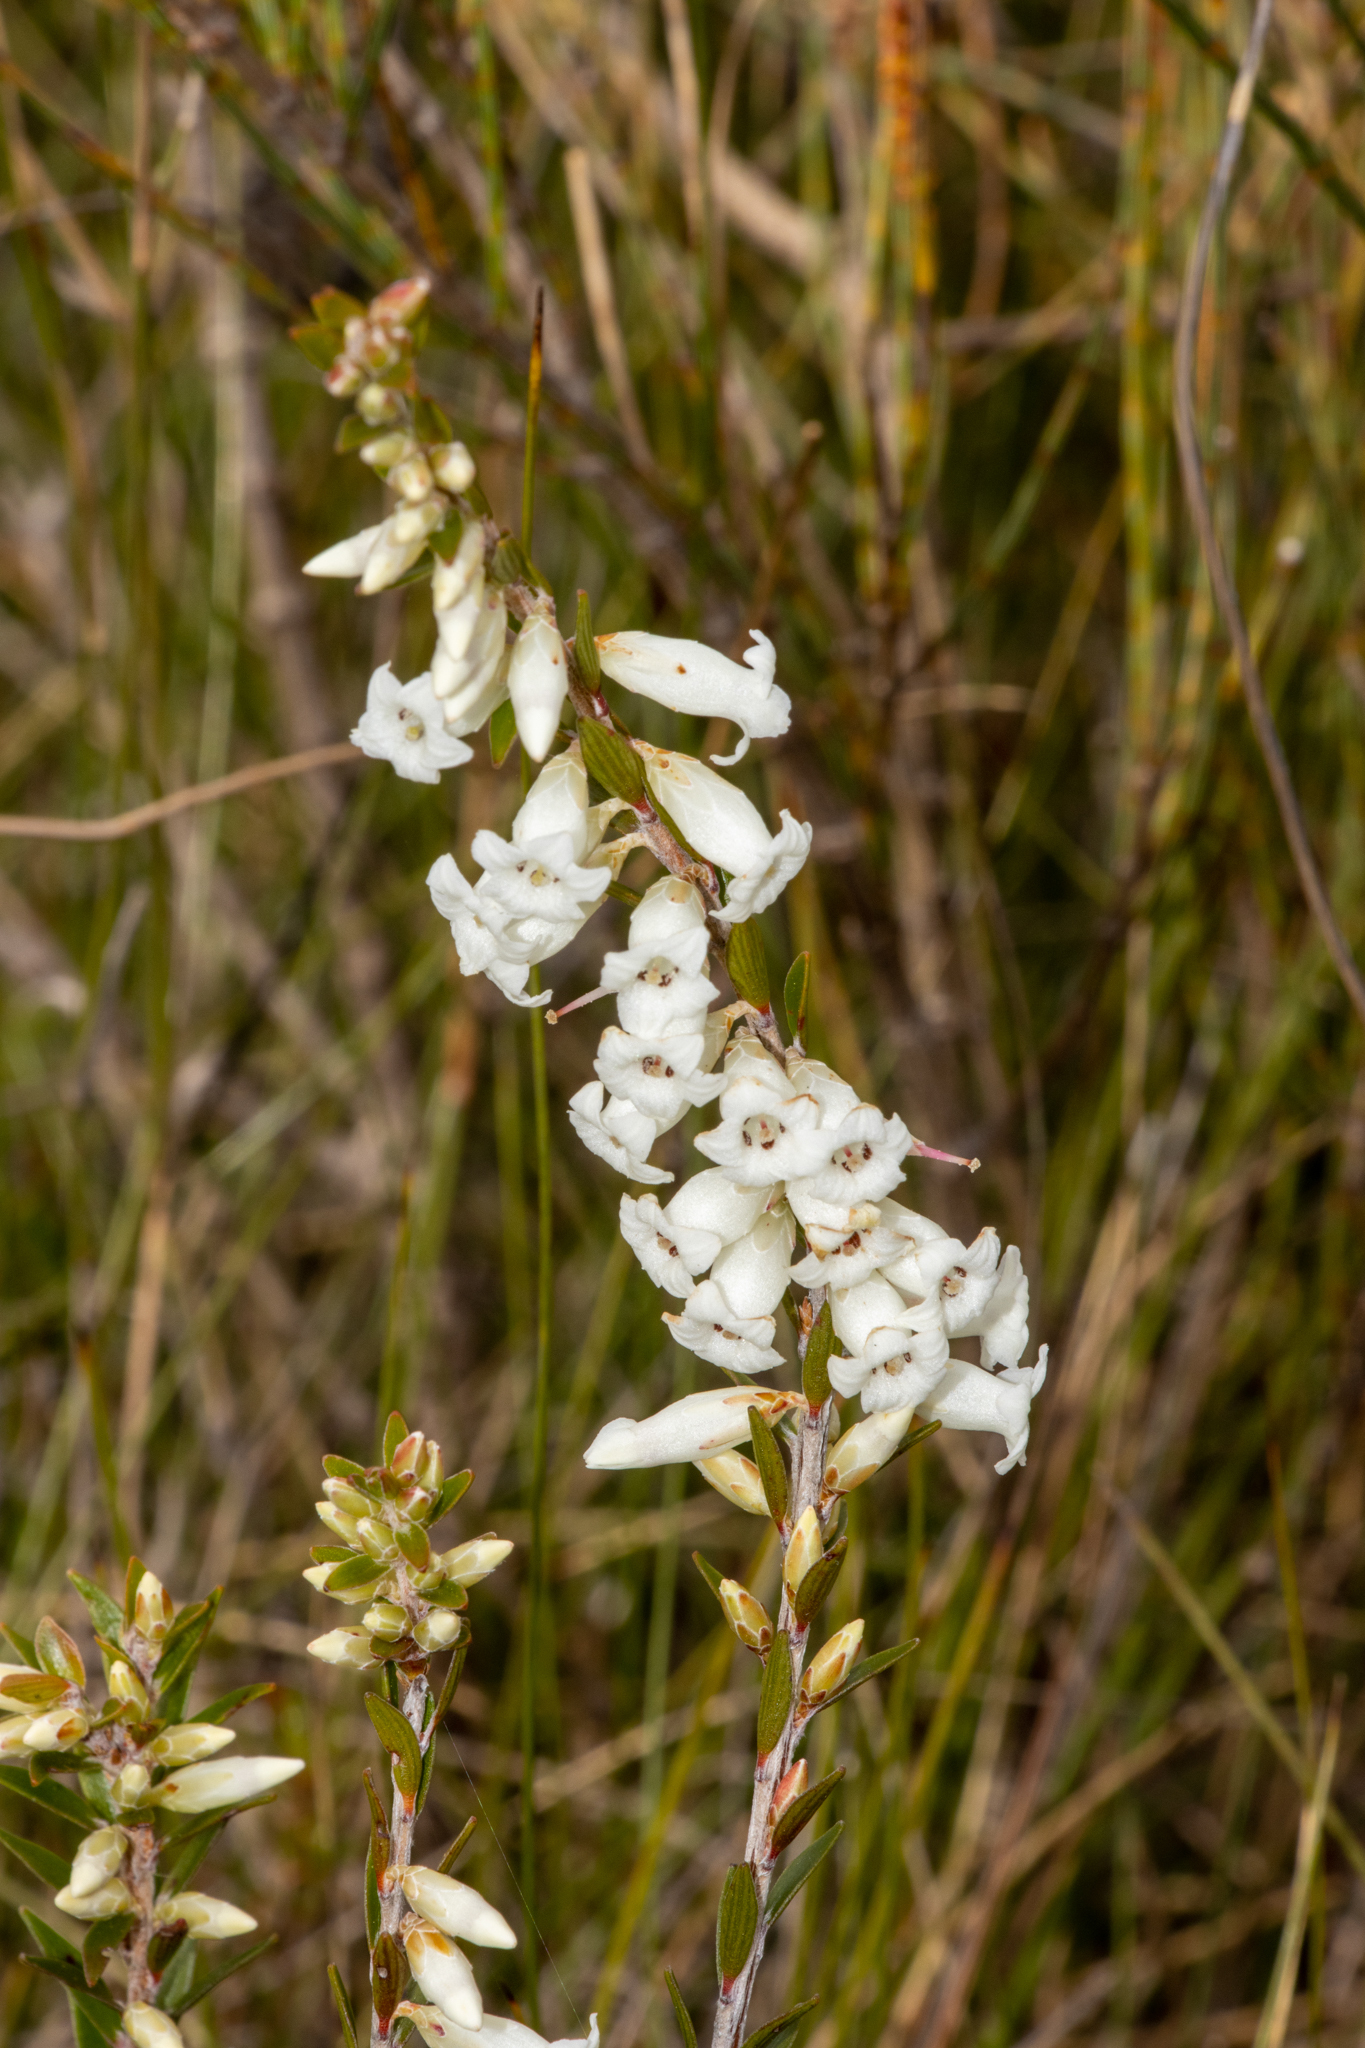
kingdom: Plantae
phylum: Tracheophyta
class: Magnoliopsida
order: Ericales
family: Ericaceae
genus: Epacris
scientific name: Epacris obtusifolia
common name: Blunt-leaf australian-heath
